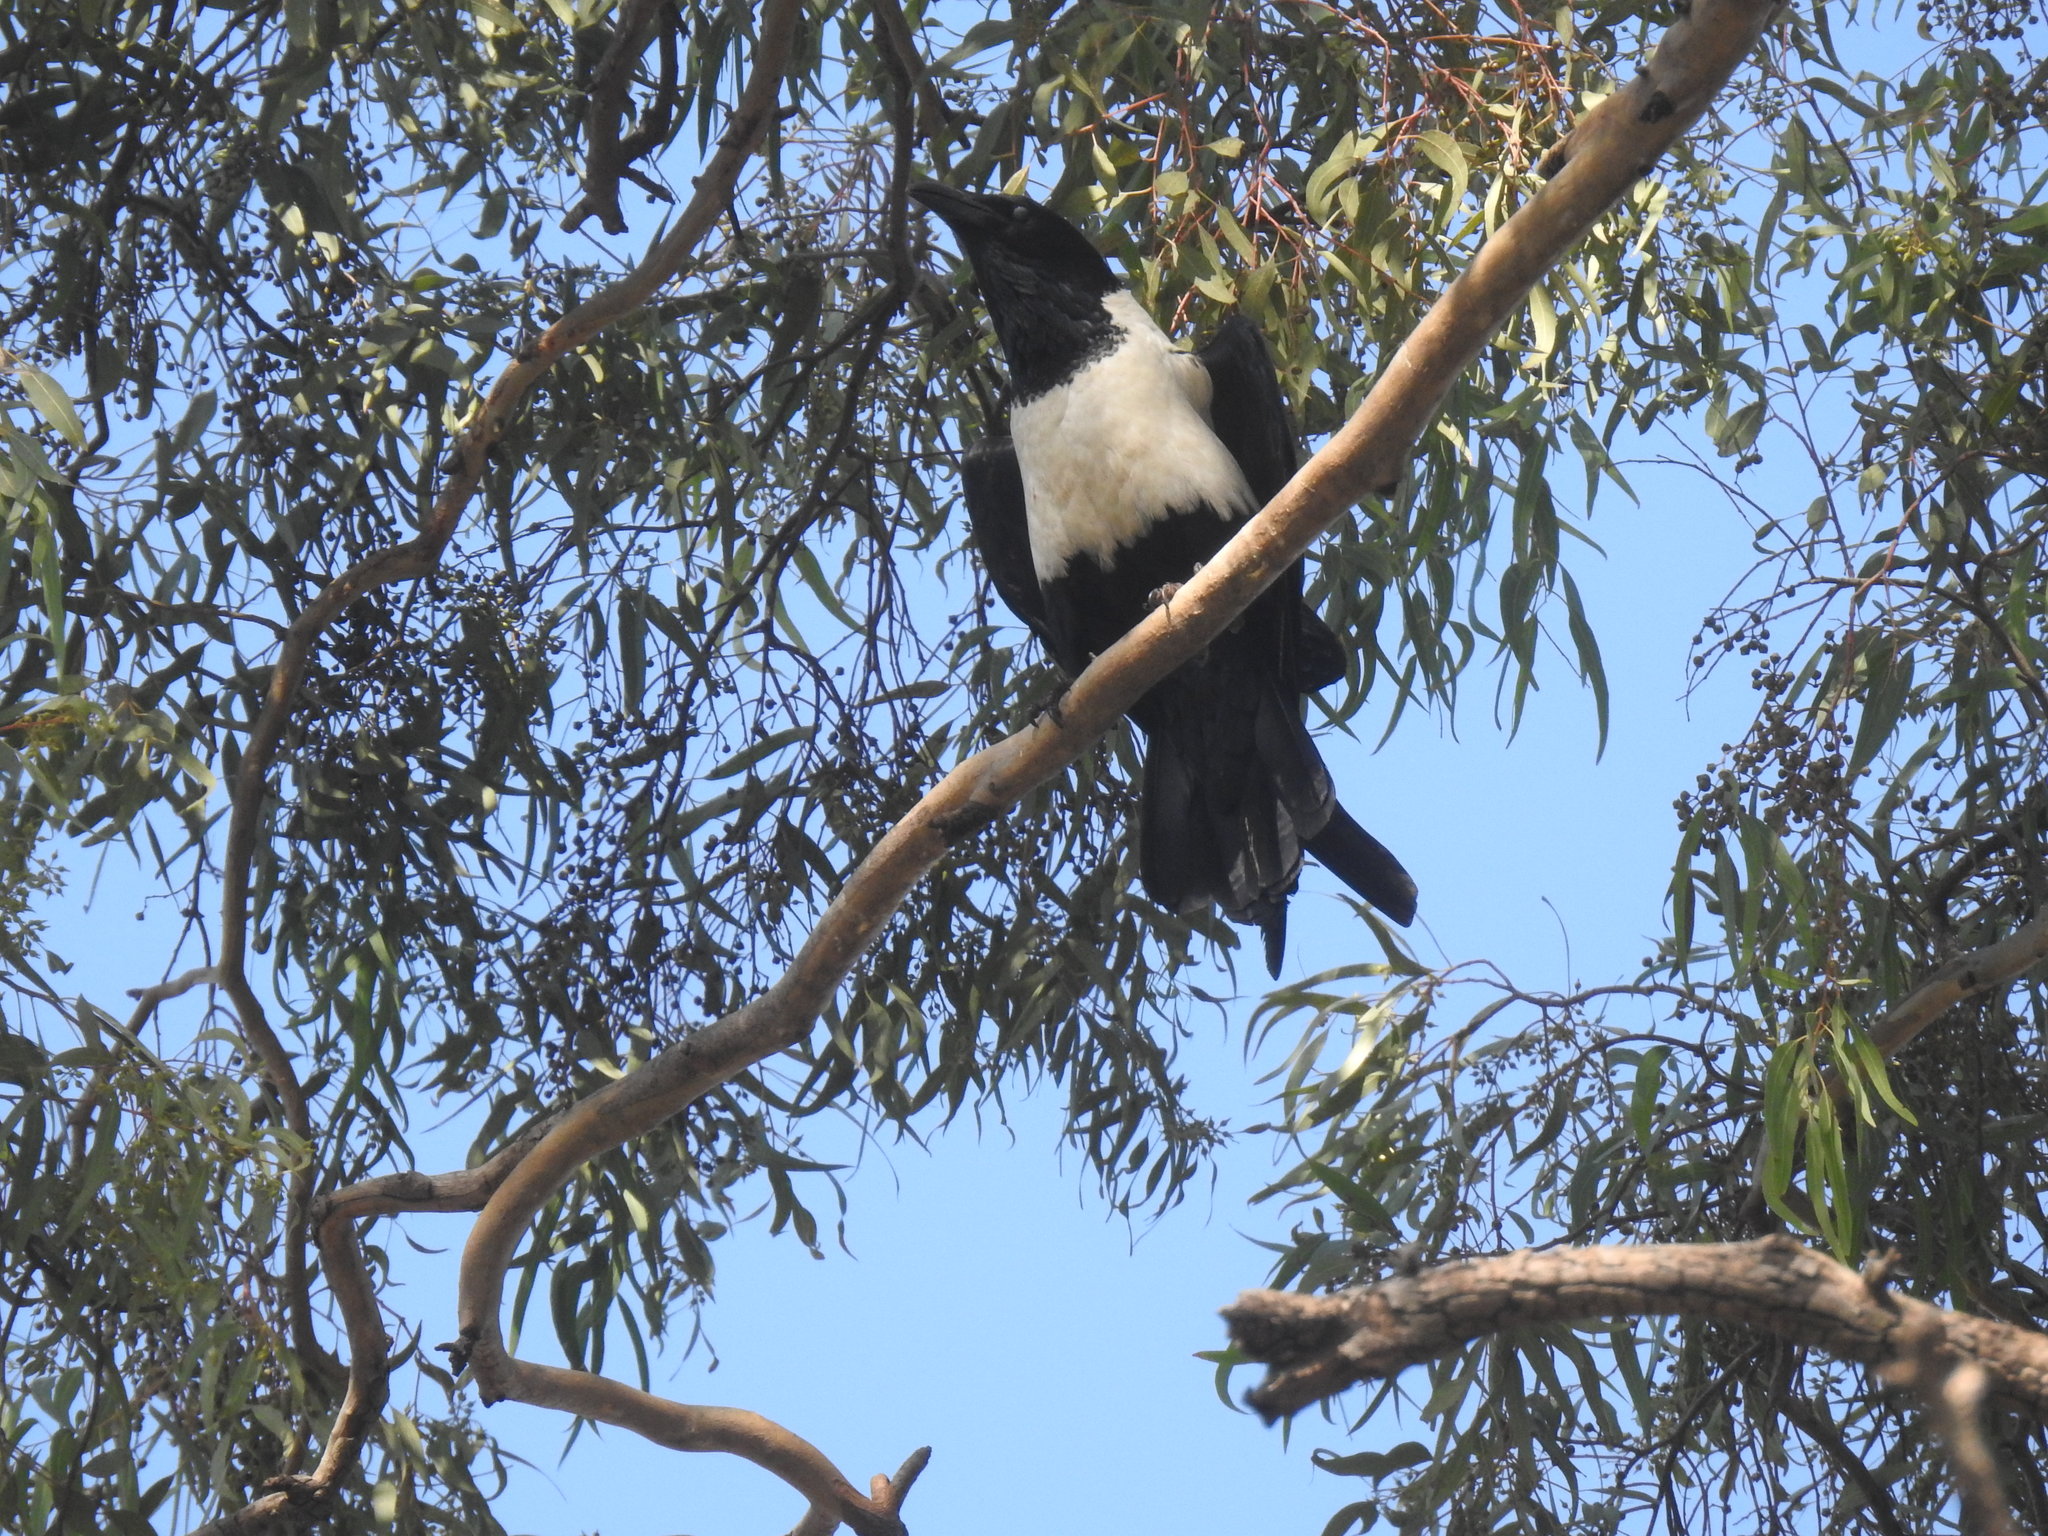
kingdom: Animalia
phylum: Chordata
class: Aves
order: Passeriformes
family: Corvidae
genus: Corvus
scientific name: Corvus albus
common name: Pied crow
